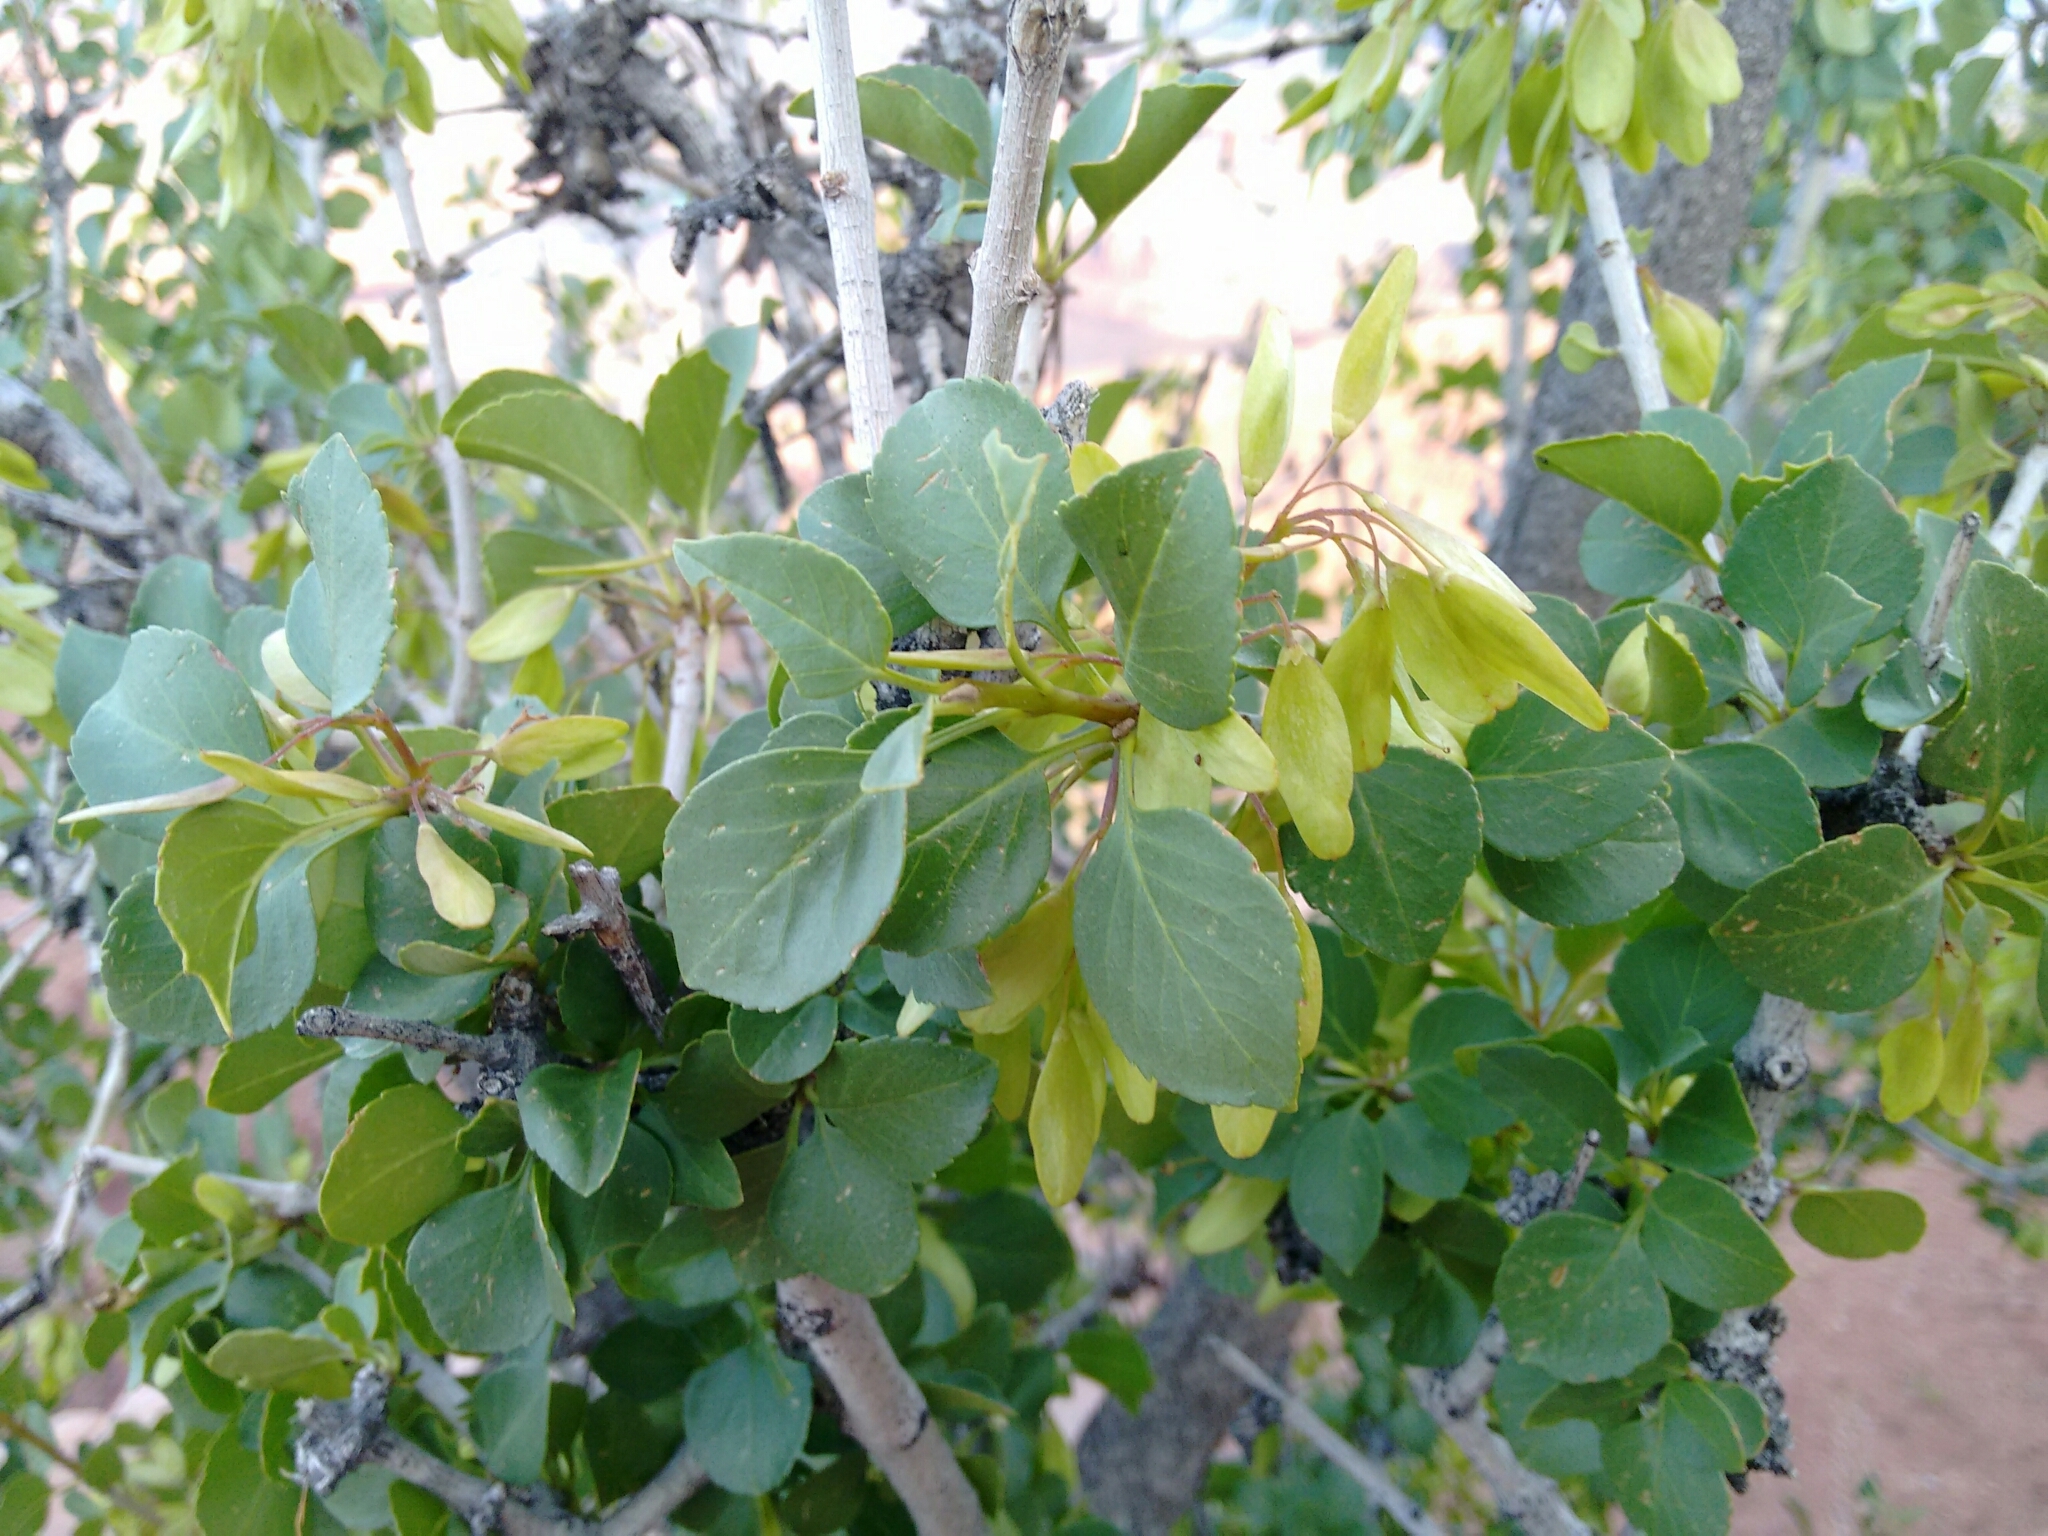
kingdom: Plantae
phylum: Tracheophyta
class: Magnoliopsida
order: Lamiales
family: Oleaceae
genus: Fraxinus
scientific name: Fraxinus anomala
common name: Utah ash
